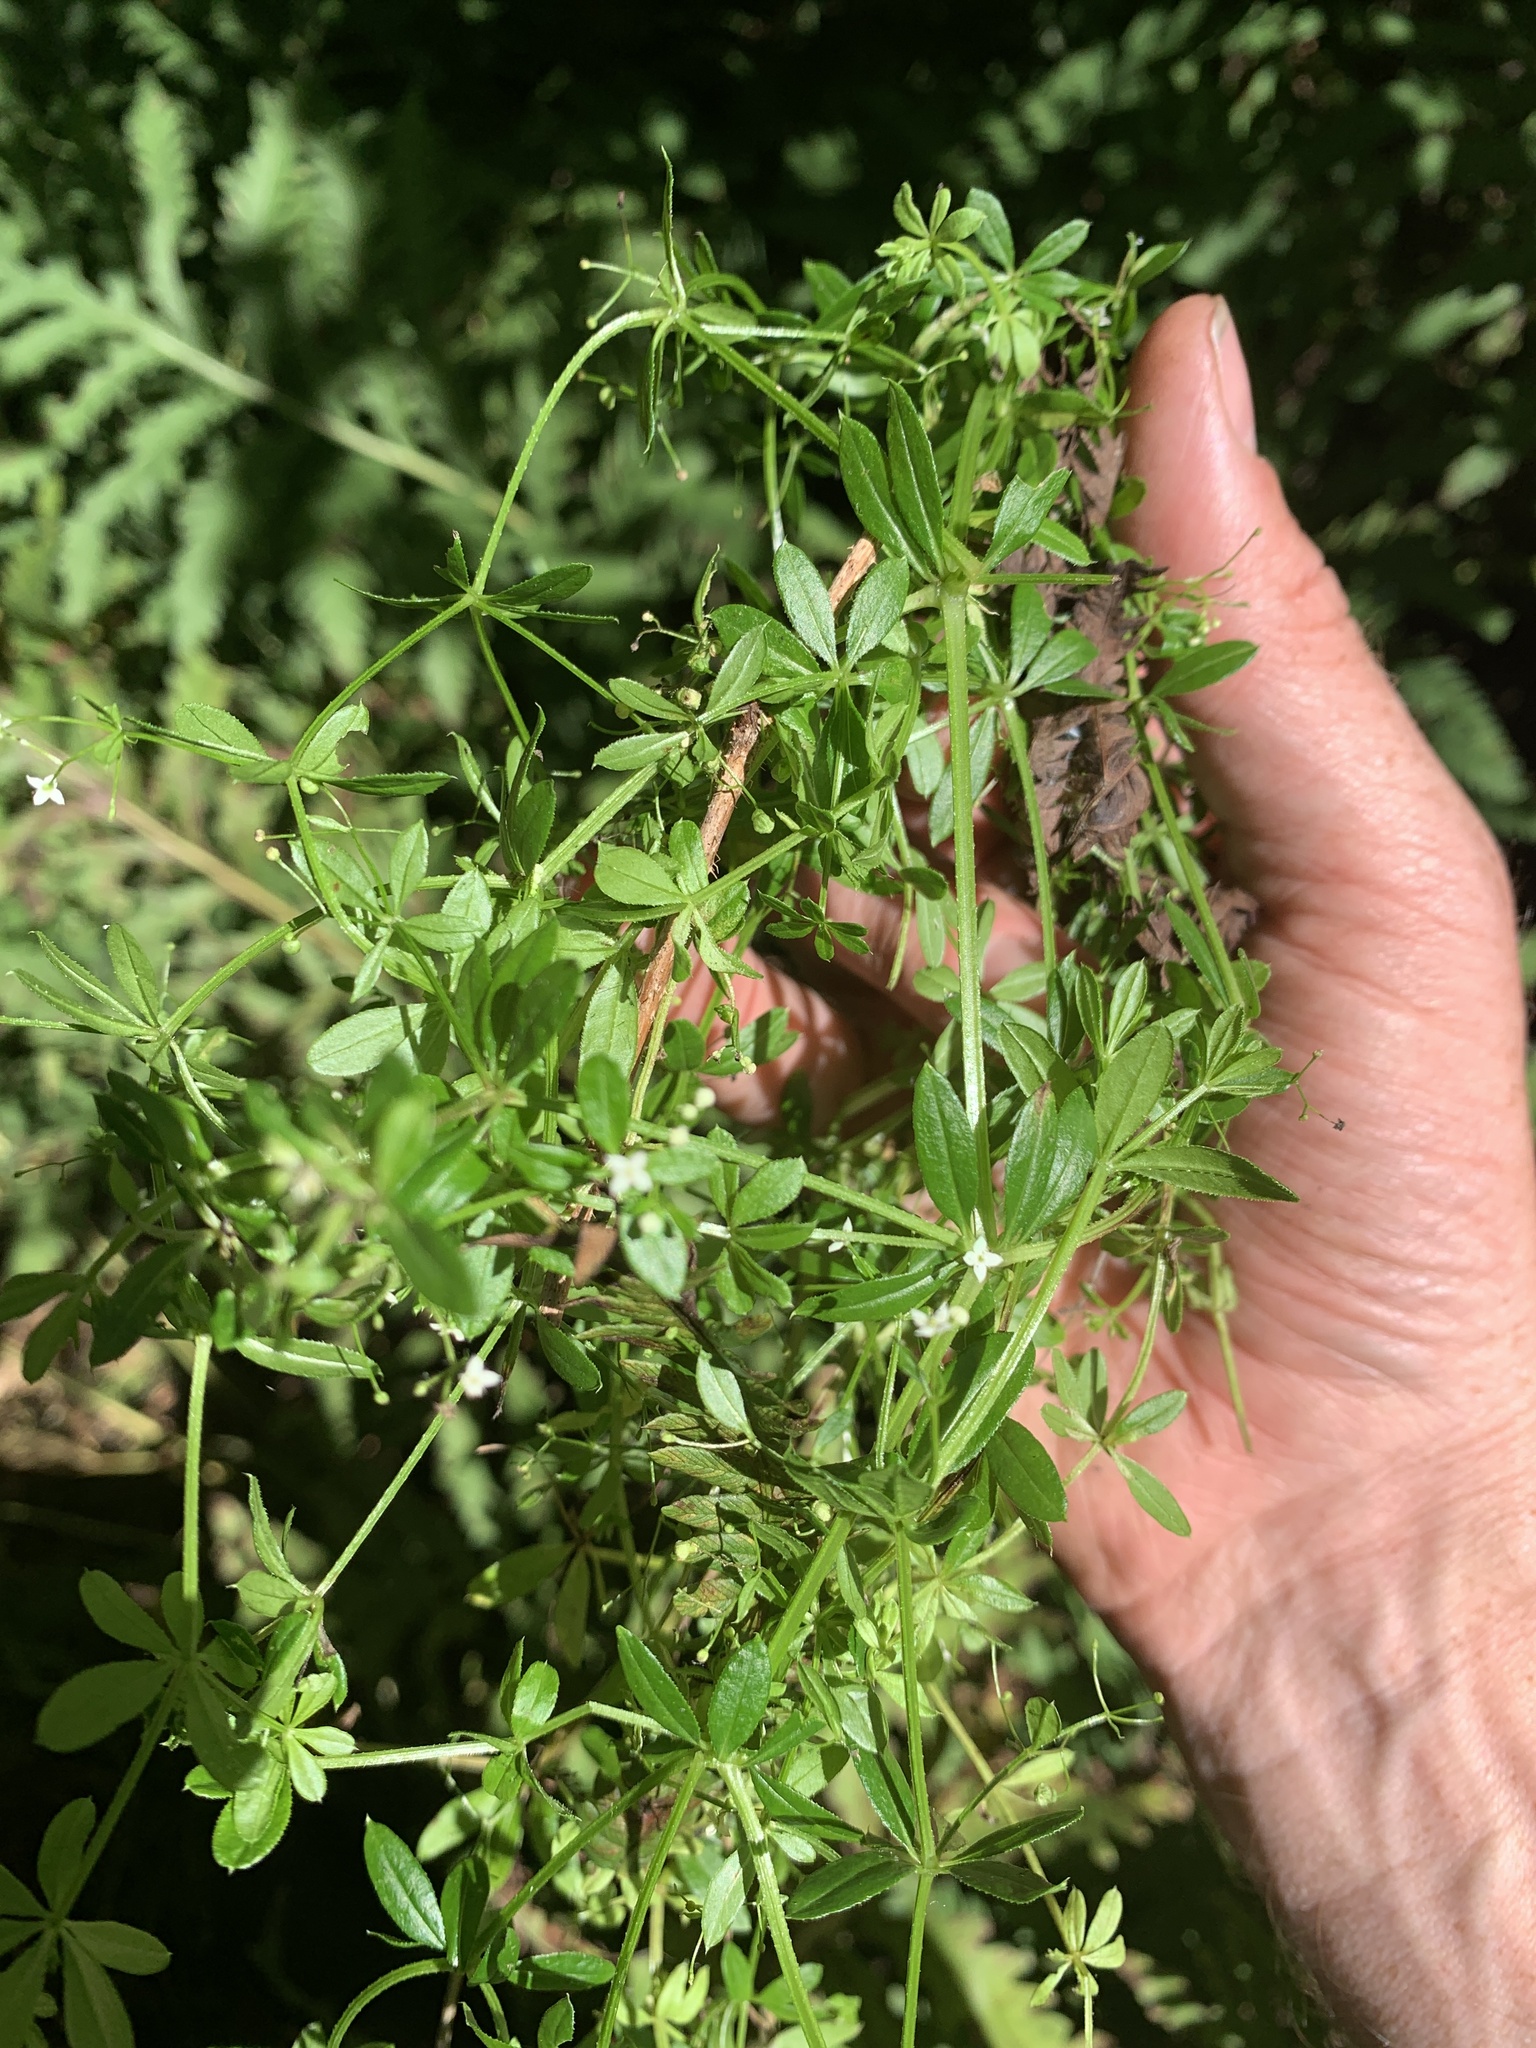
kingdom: Plantae
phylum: Tracheophyta
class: Magnoliopsida
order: Gentianales
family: Rubiaceae
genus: Galium
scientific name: Galium asprellum
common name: Rough bedstraw
